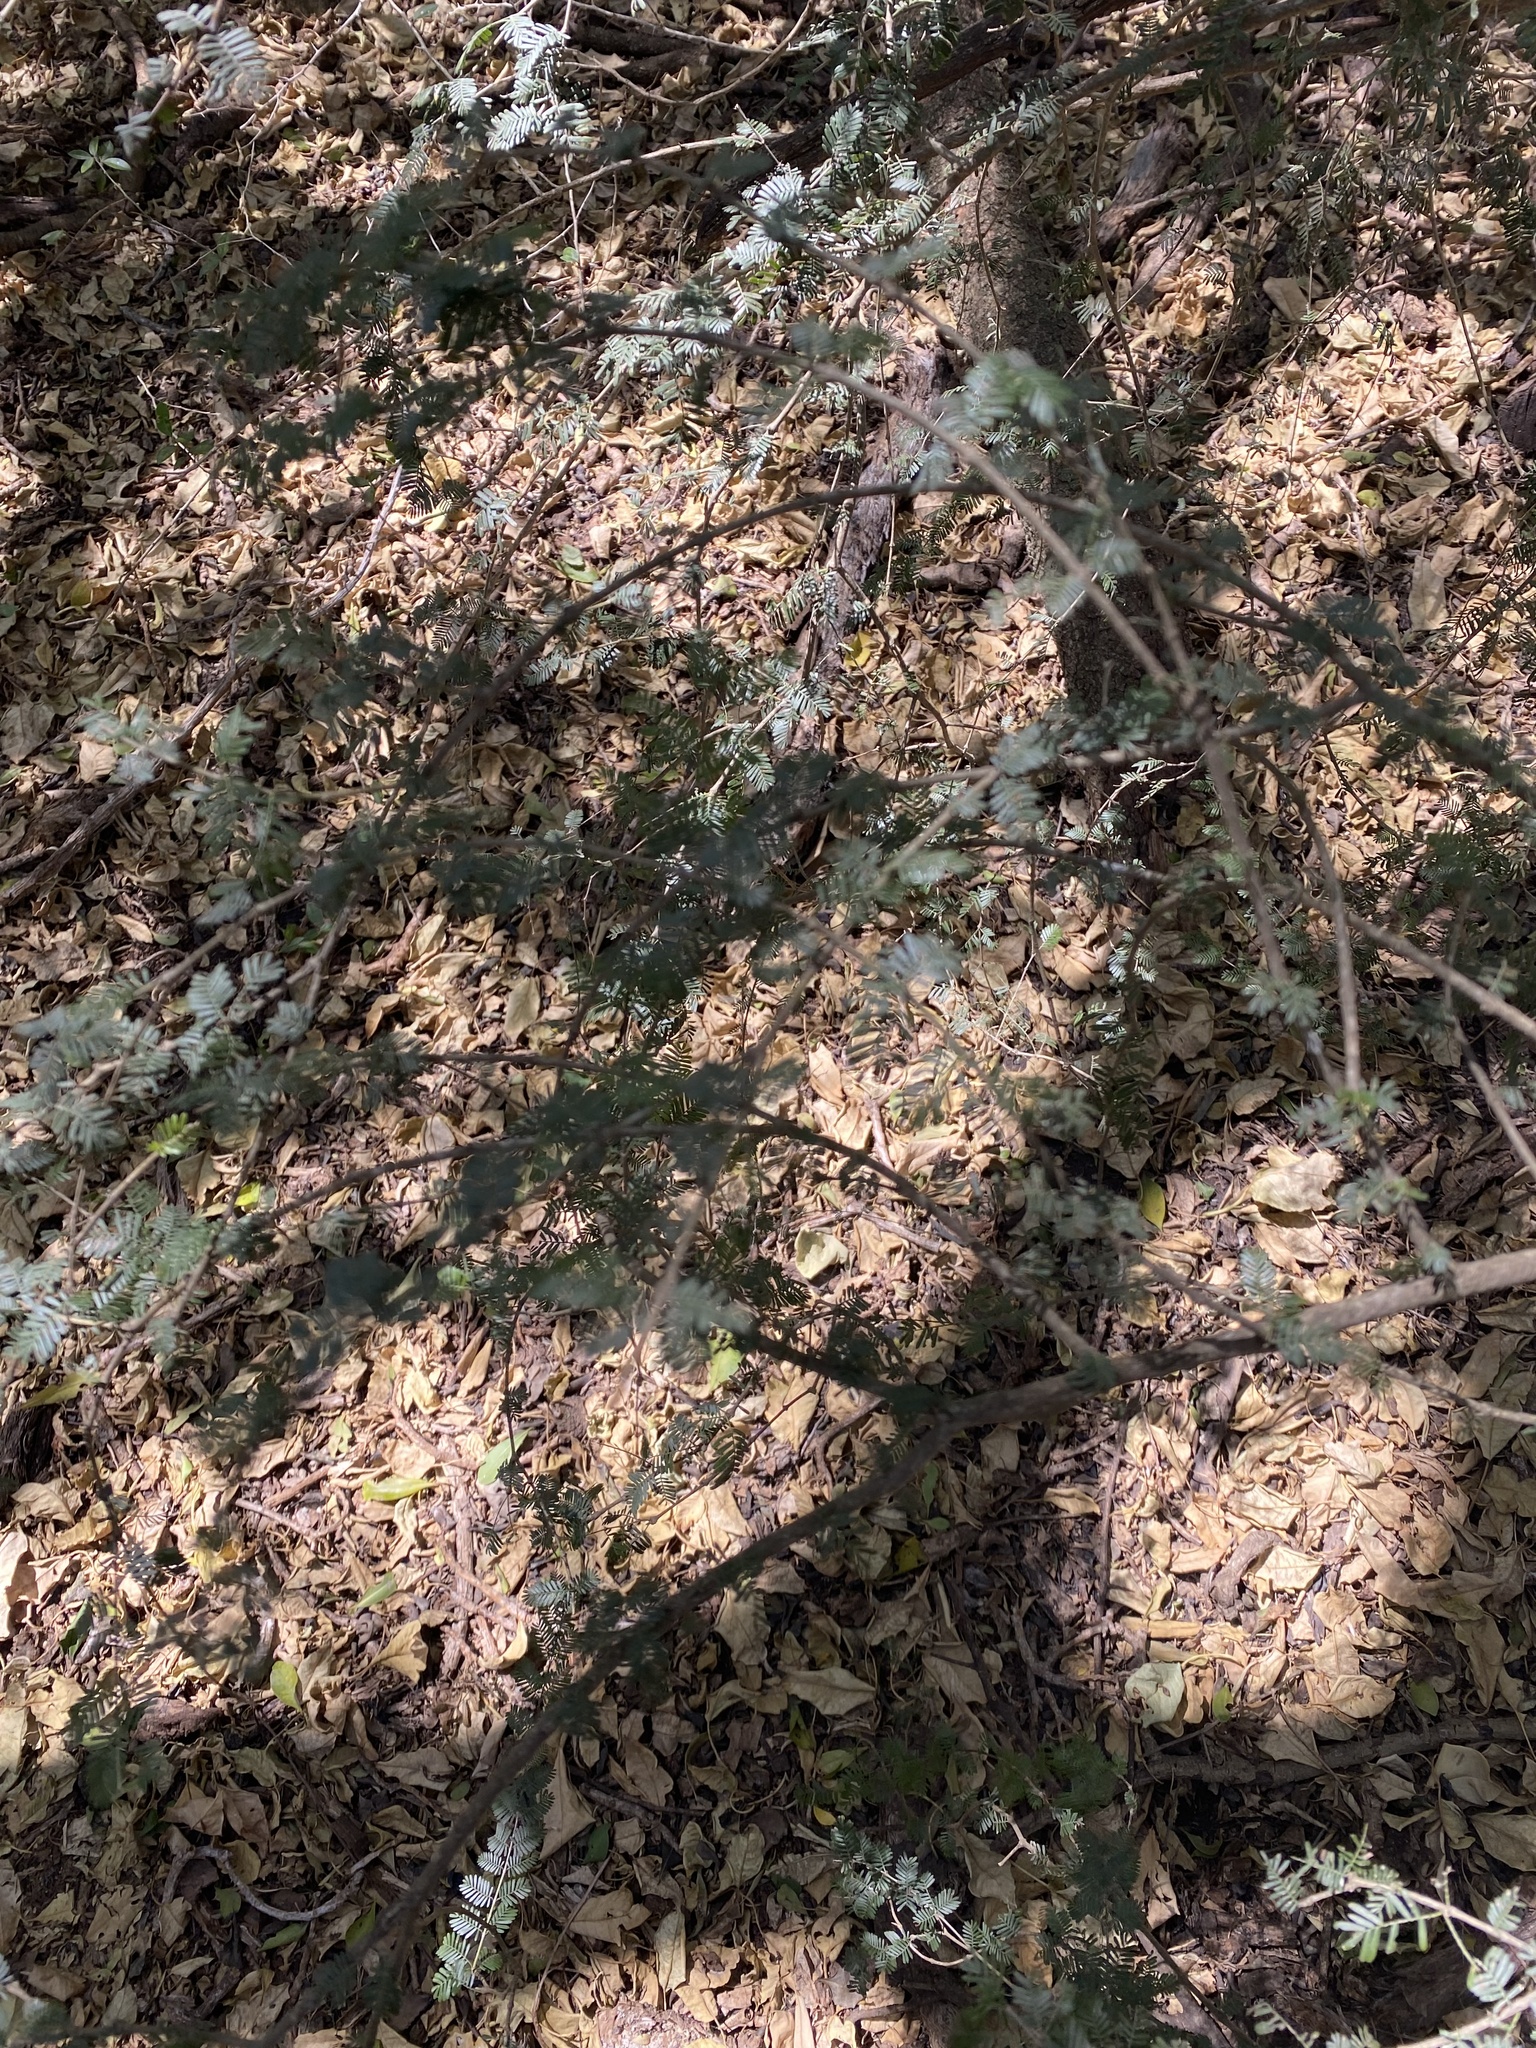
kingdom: Plantae
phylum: Tracheophyta
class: Magnoliopsida
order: Zygophyllales
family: Zygophyllaceae
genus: Porlieria
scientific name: Porlieria microphylla
